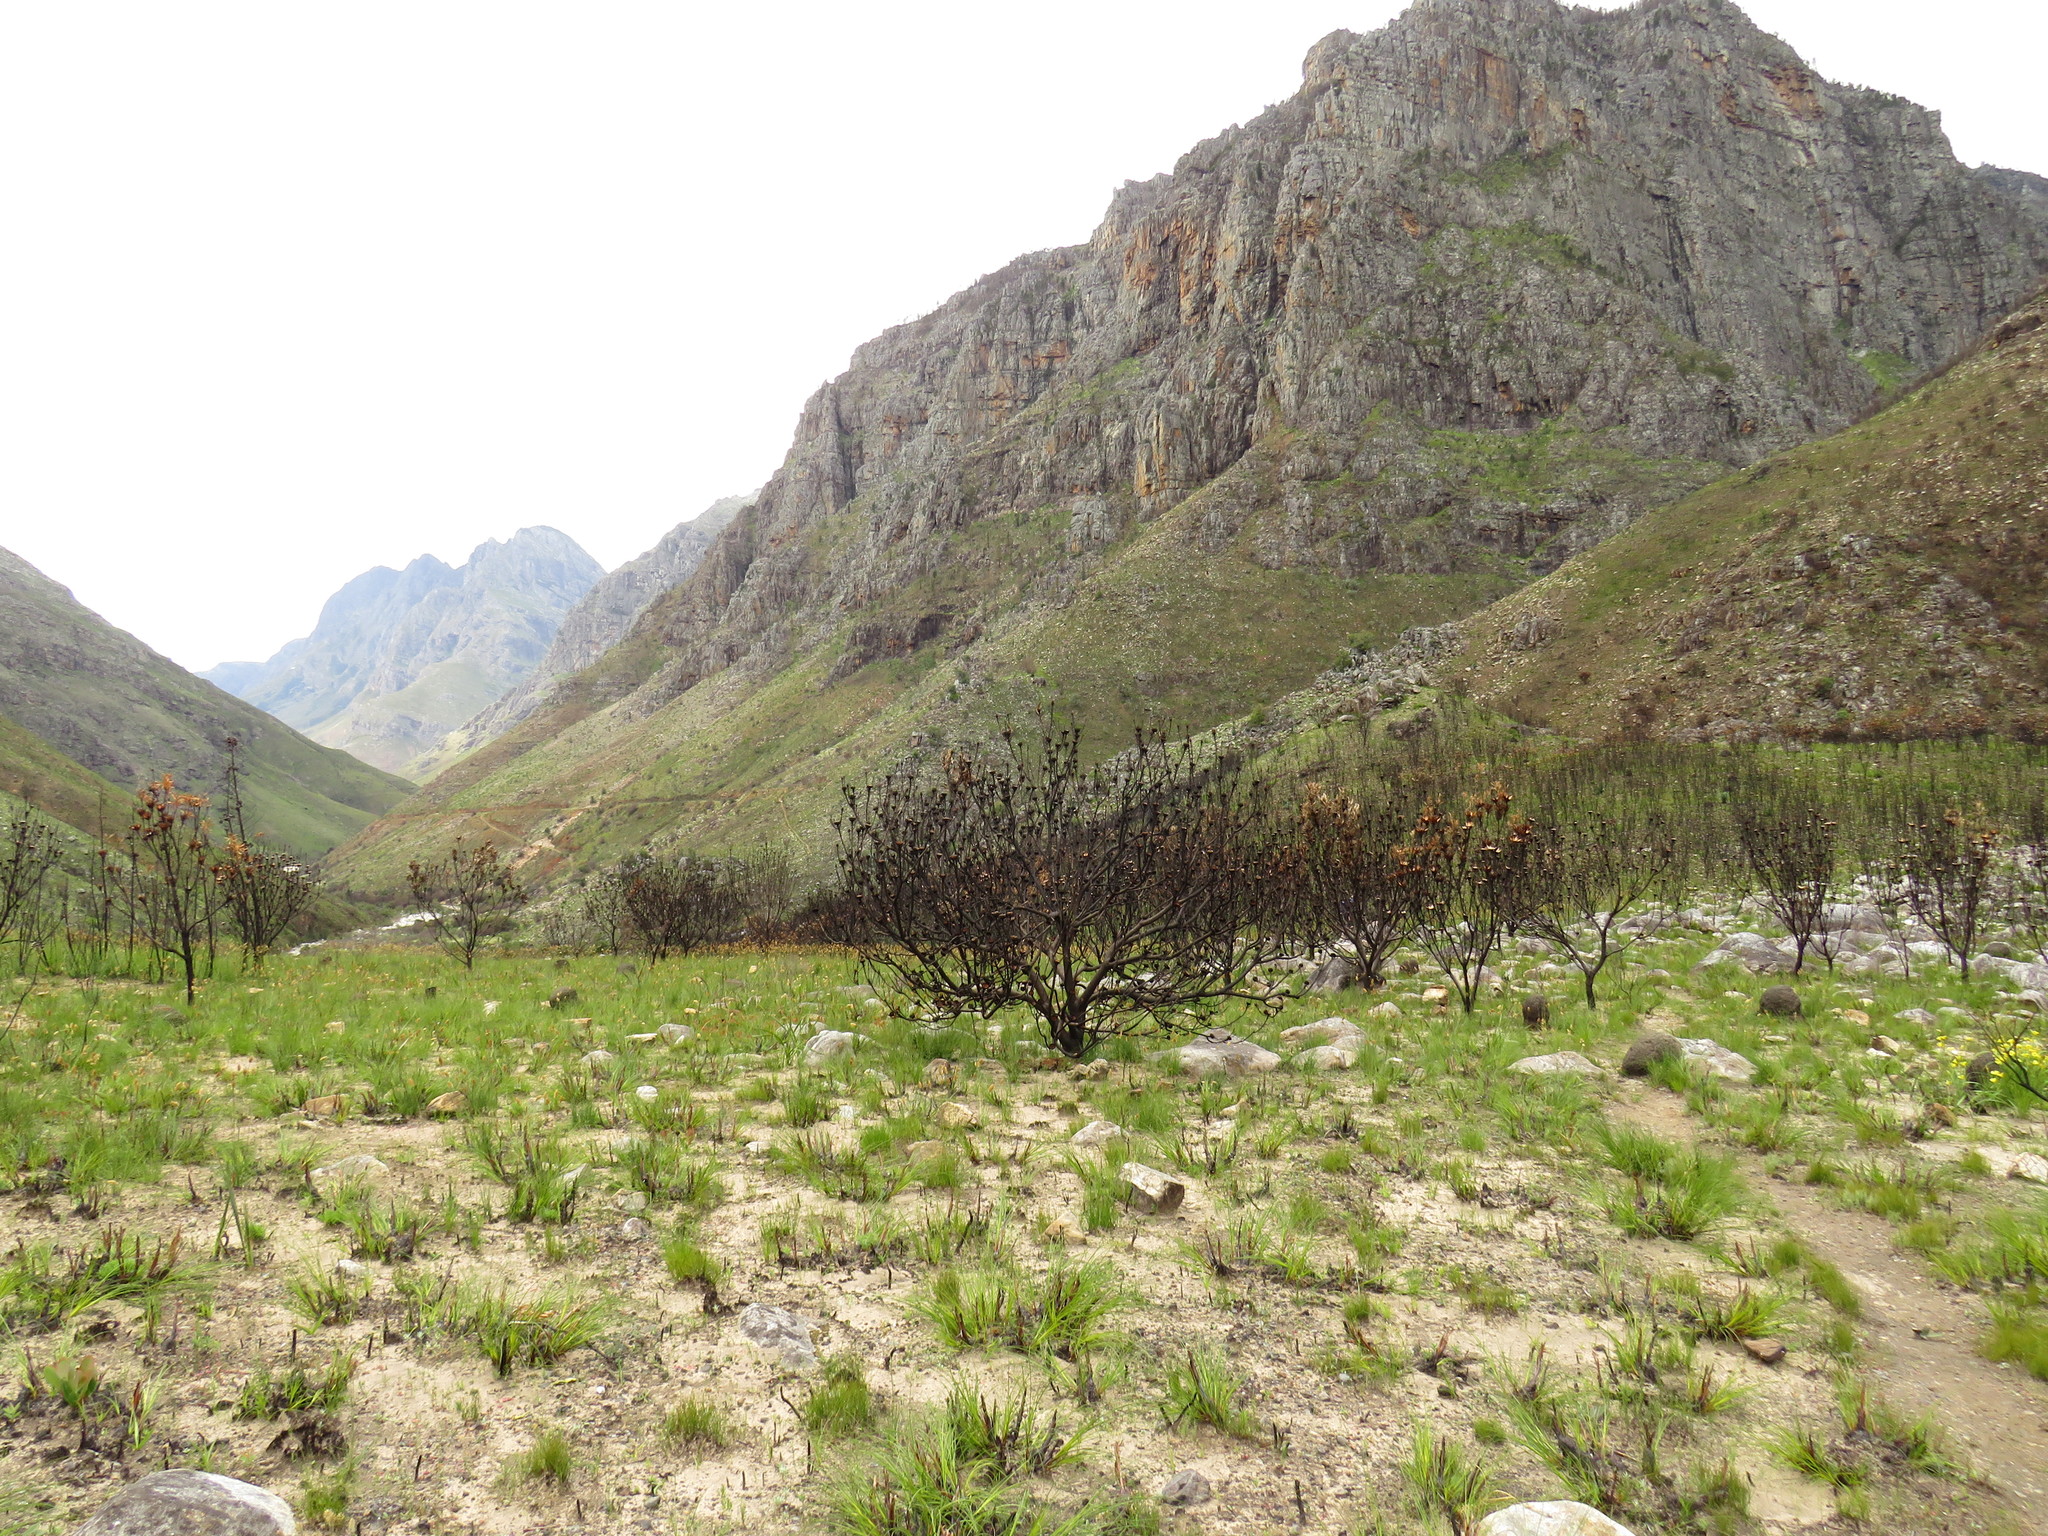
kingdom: Plantae
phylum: Tracheophyta
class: Magnoliopsida
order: Proteales
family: Proteaceae
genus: Protea
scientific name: Protea laurifolia
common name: Grey-leaf sugarbsh
